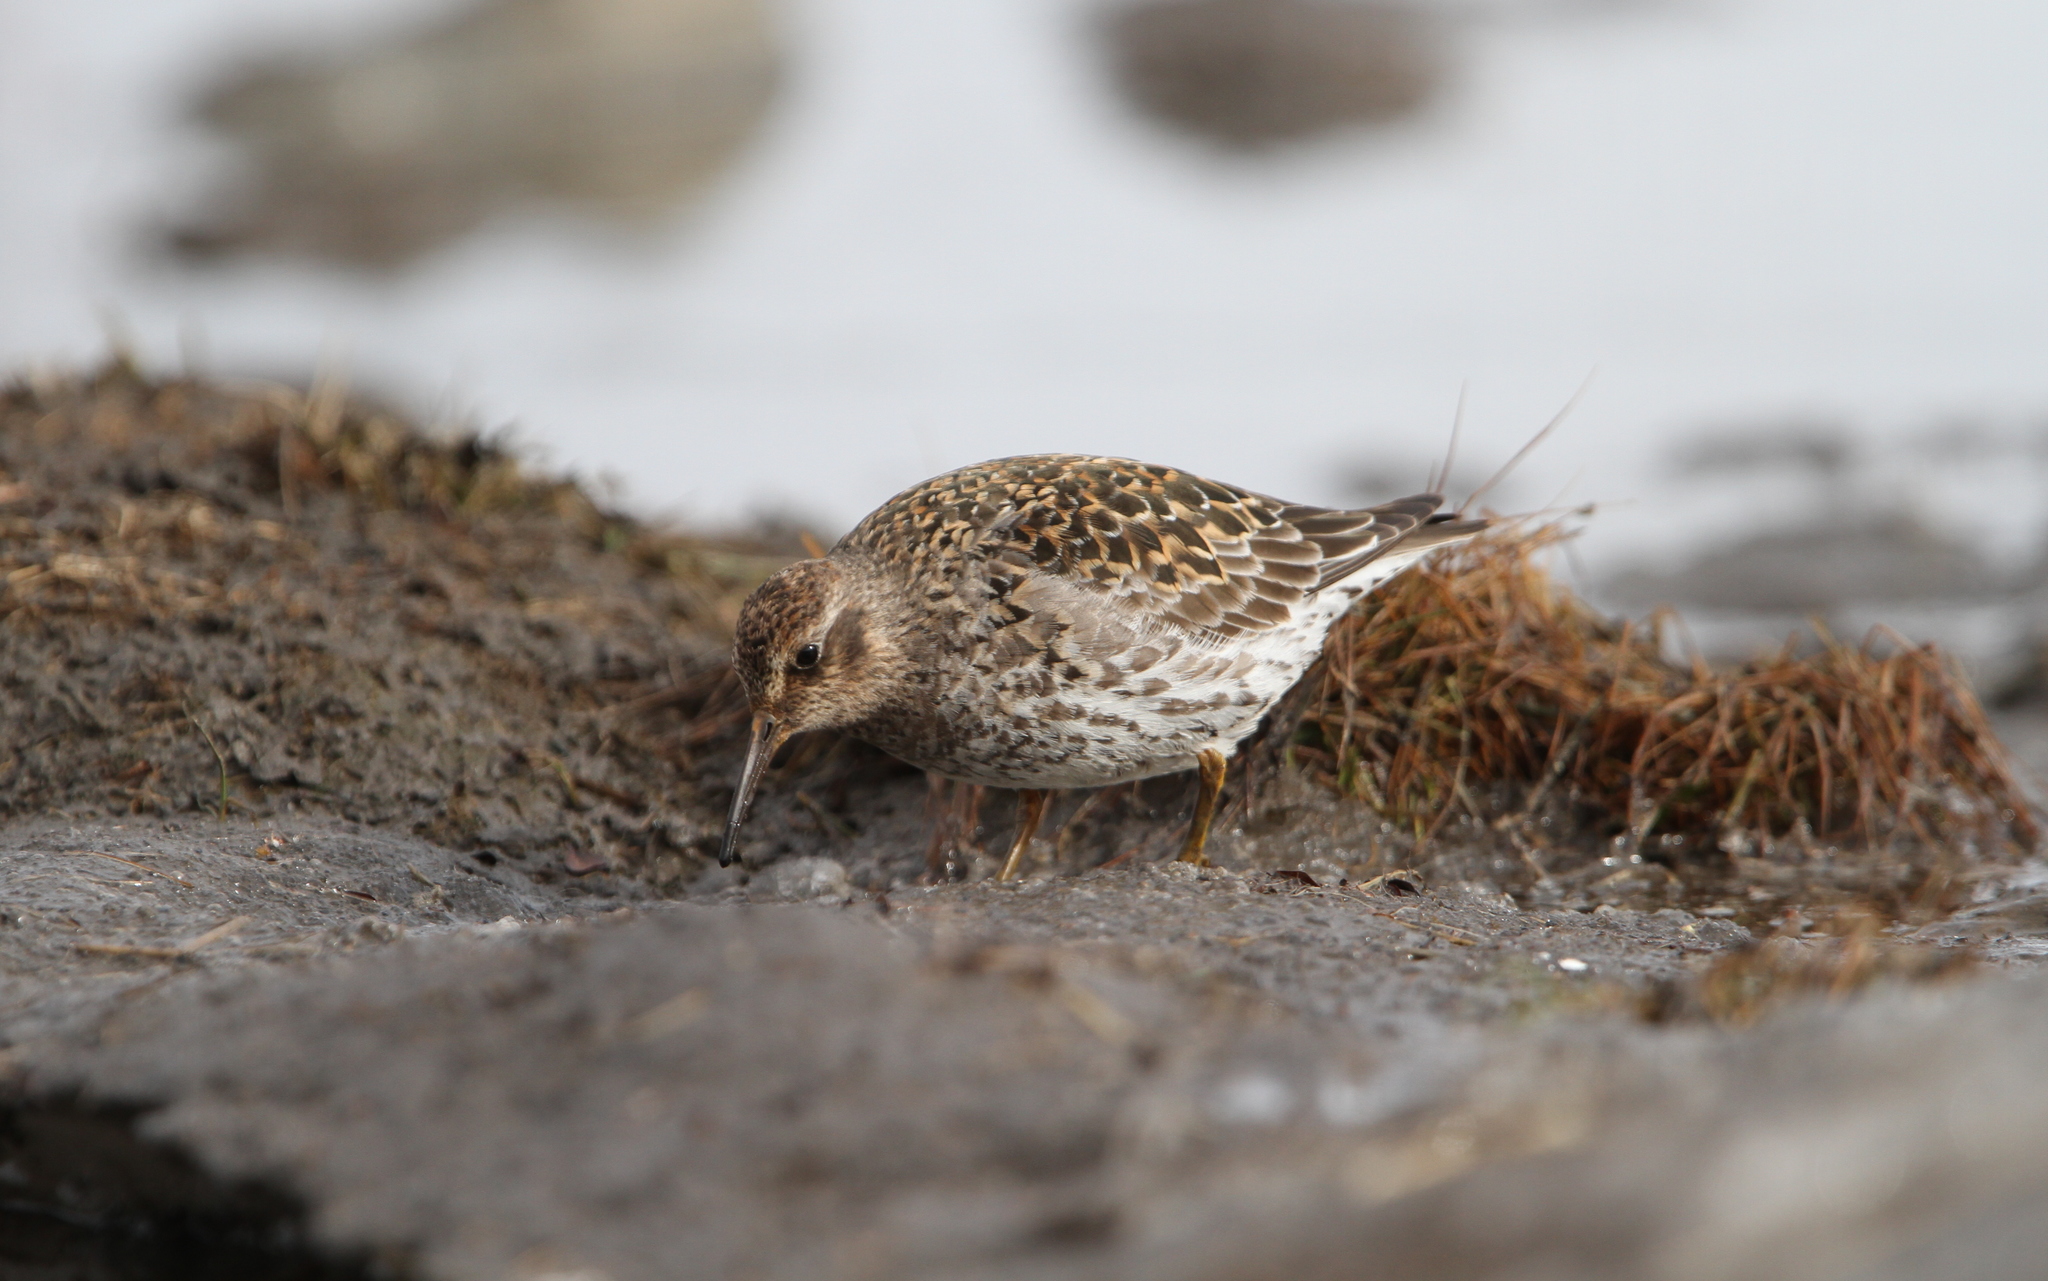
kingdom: Animalia
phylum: Chordata
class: Aves
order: Charadriiformes
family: Scolopacidae
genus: Calidris
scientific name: Calidris maritima
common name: Purple sandpiper
